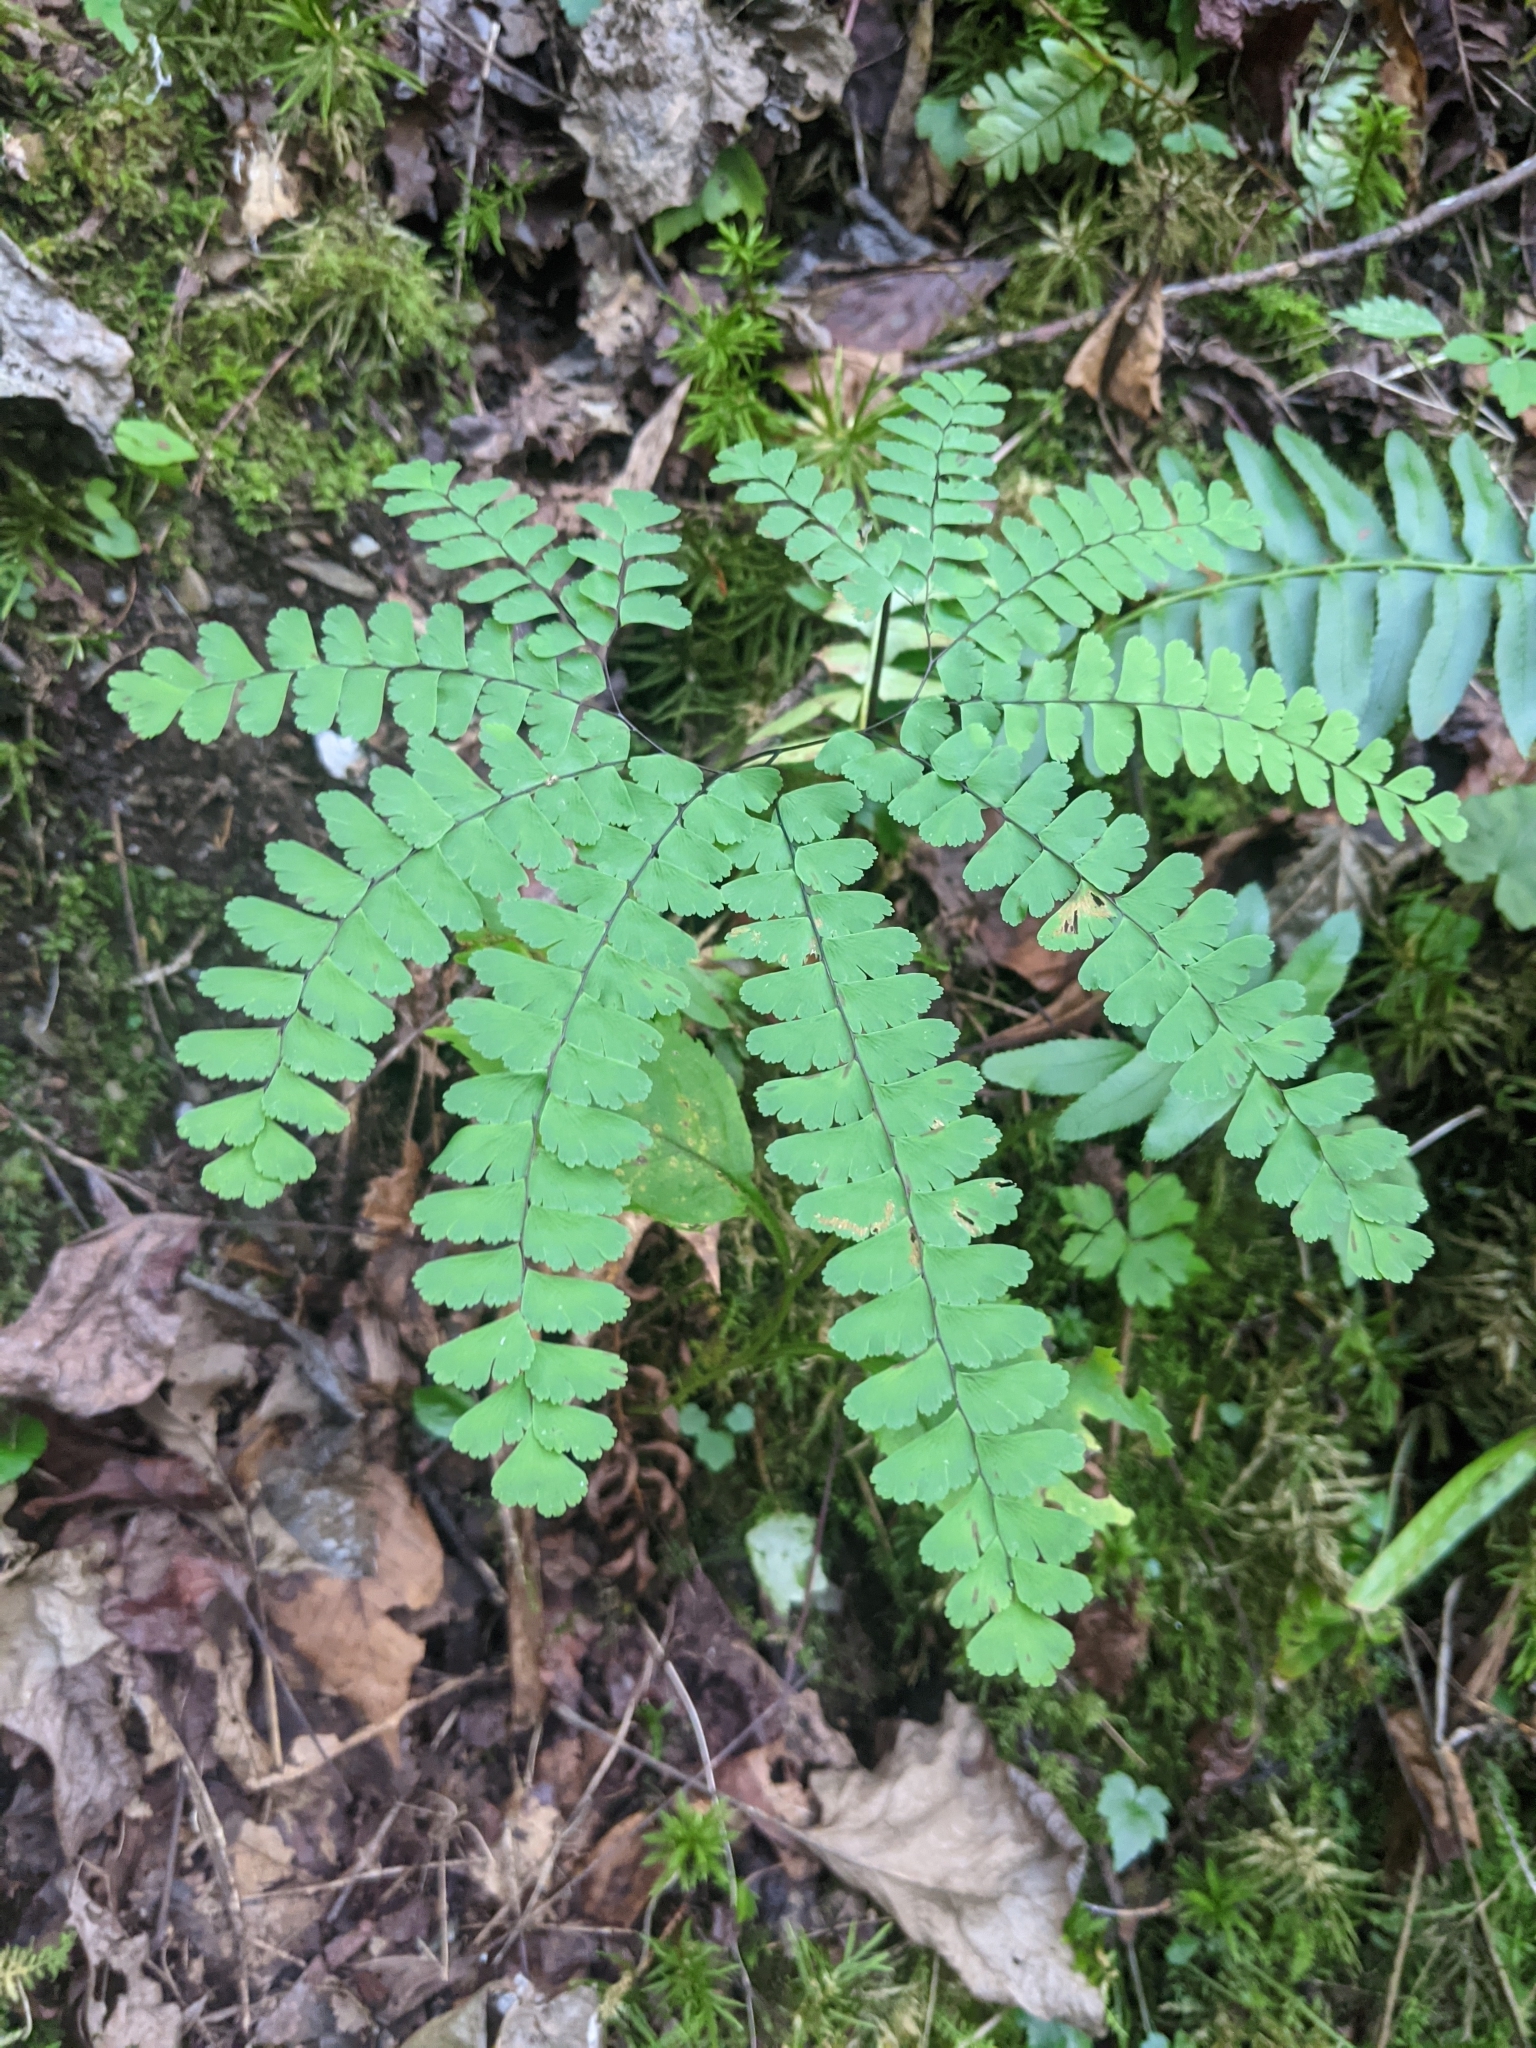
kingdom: Plantae
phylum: Tracheophyta
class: Polypodiopsida
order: Polypodiales
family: Pteridaceae
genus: Adiantum
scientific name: Adiantum pedatum
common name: Five-finger fern
